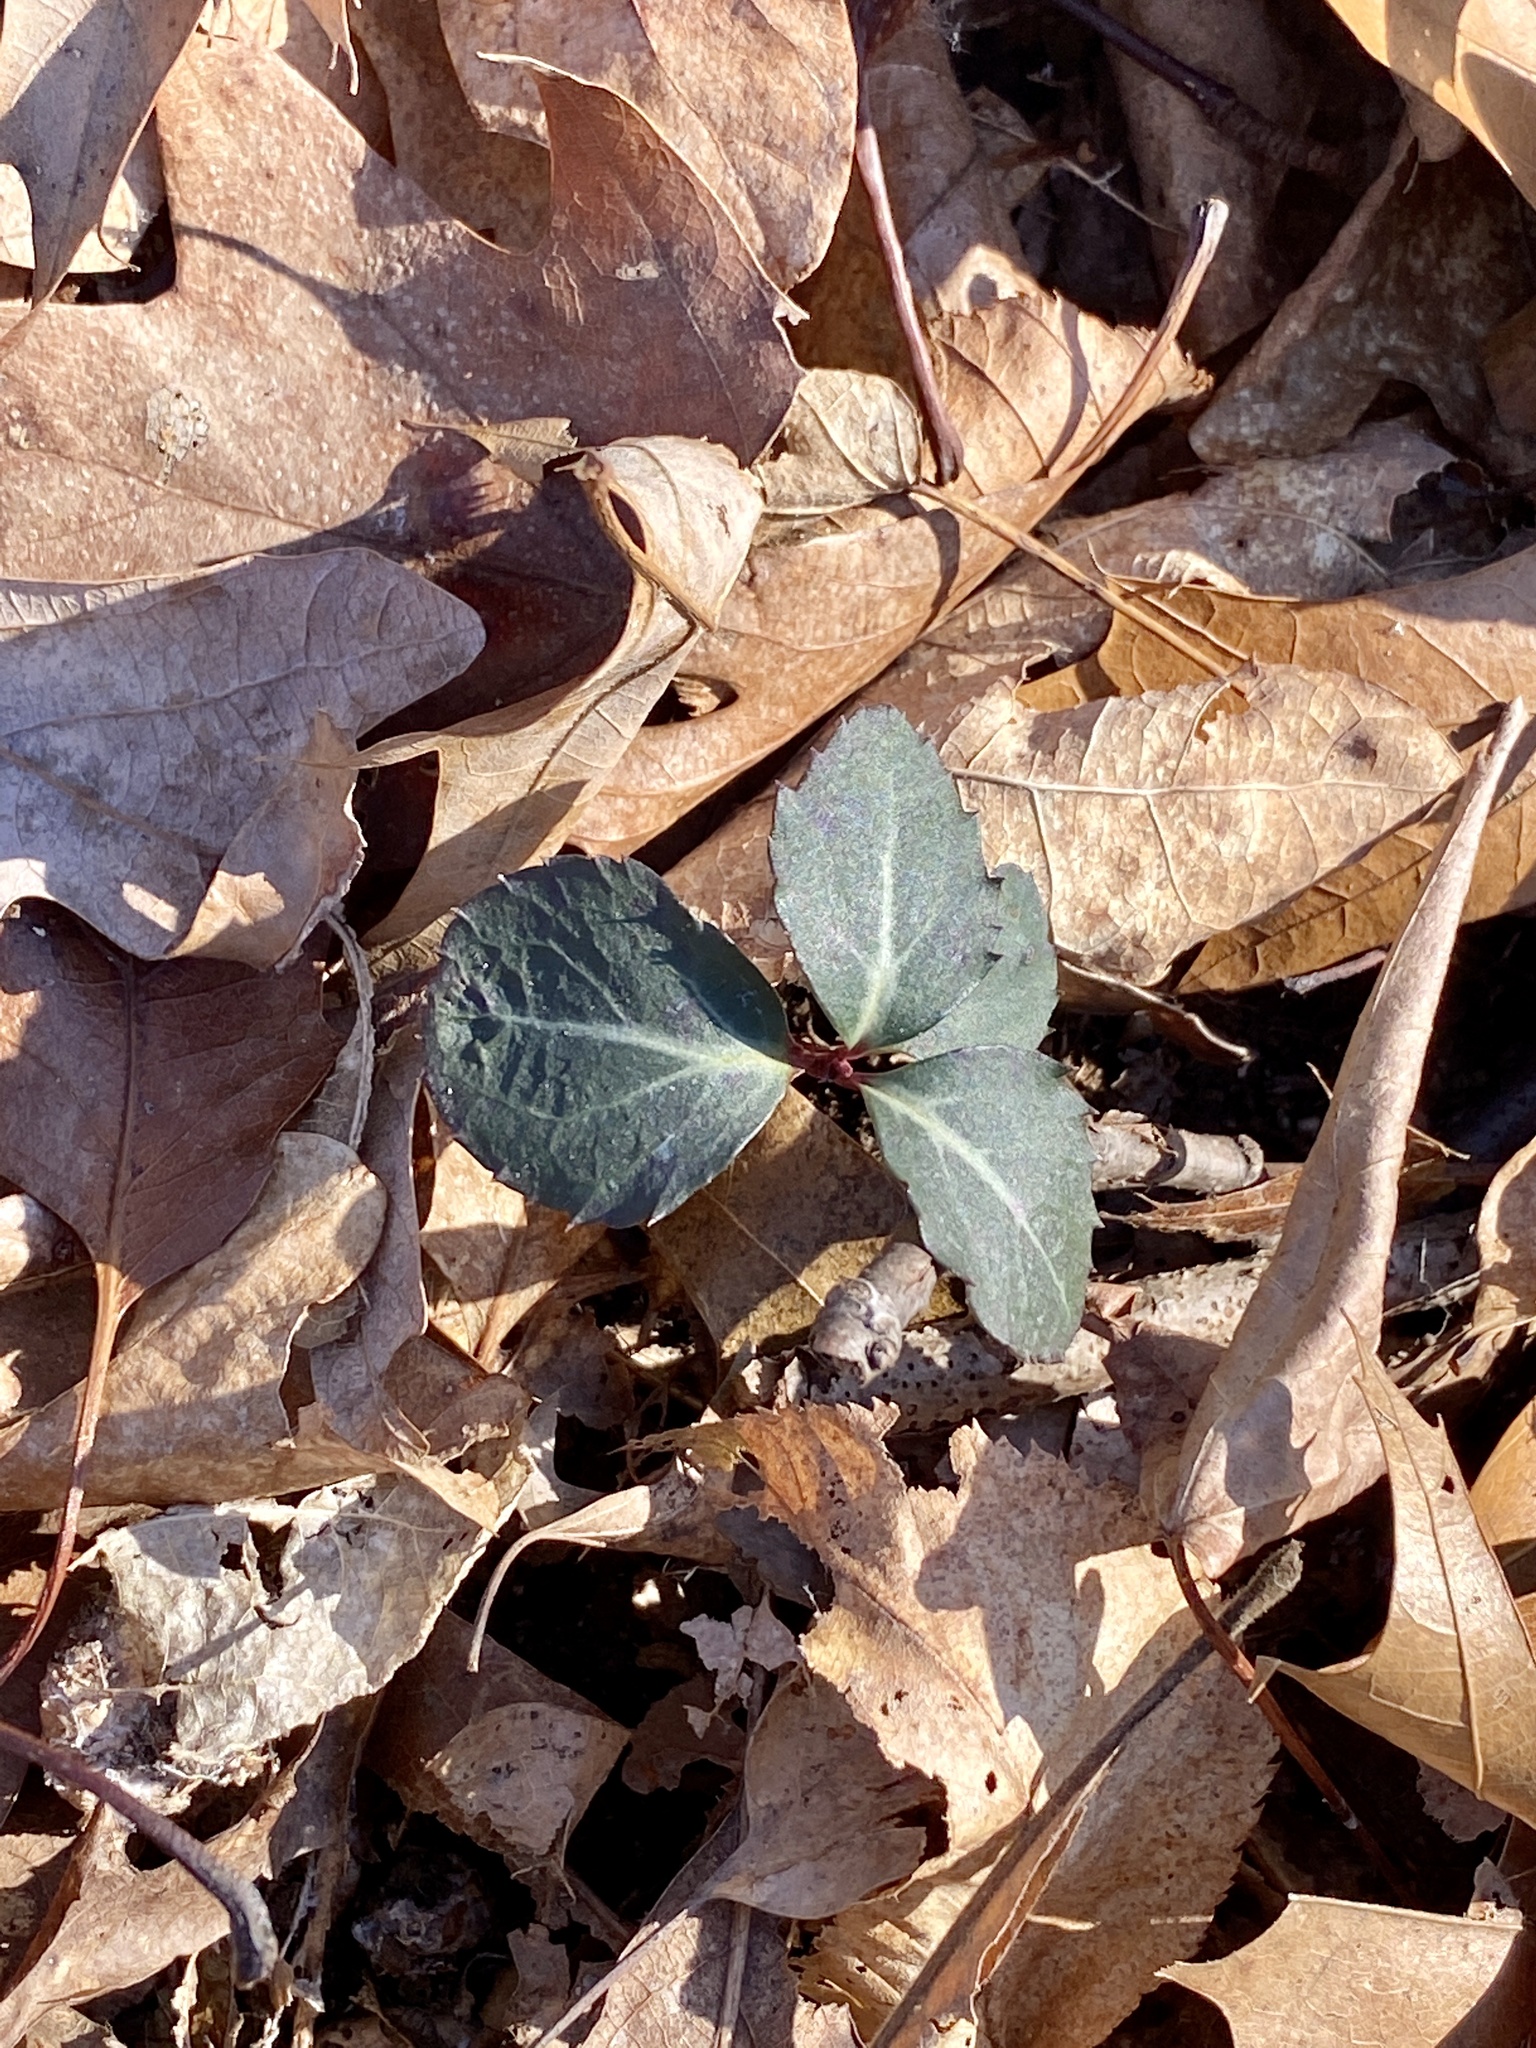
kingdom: Plantae
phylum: Tracheophyta
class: Magnoliopsida
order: Ericales
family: Ericaceae
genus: Chimaphila
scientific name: Chimaphila maculata
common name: Spotted pipsissewa
